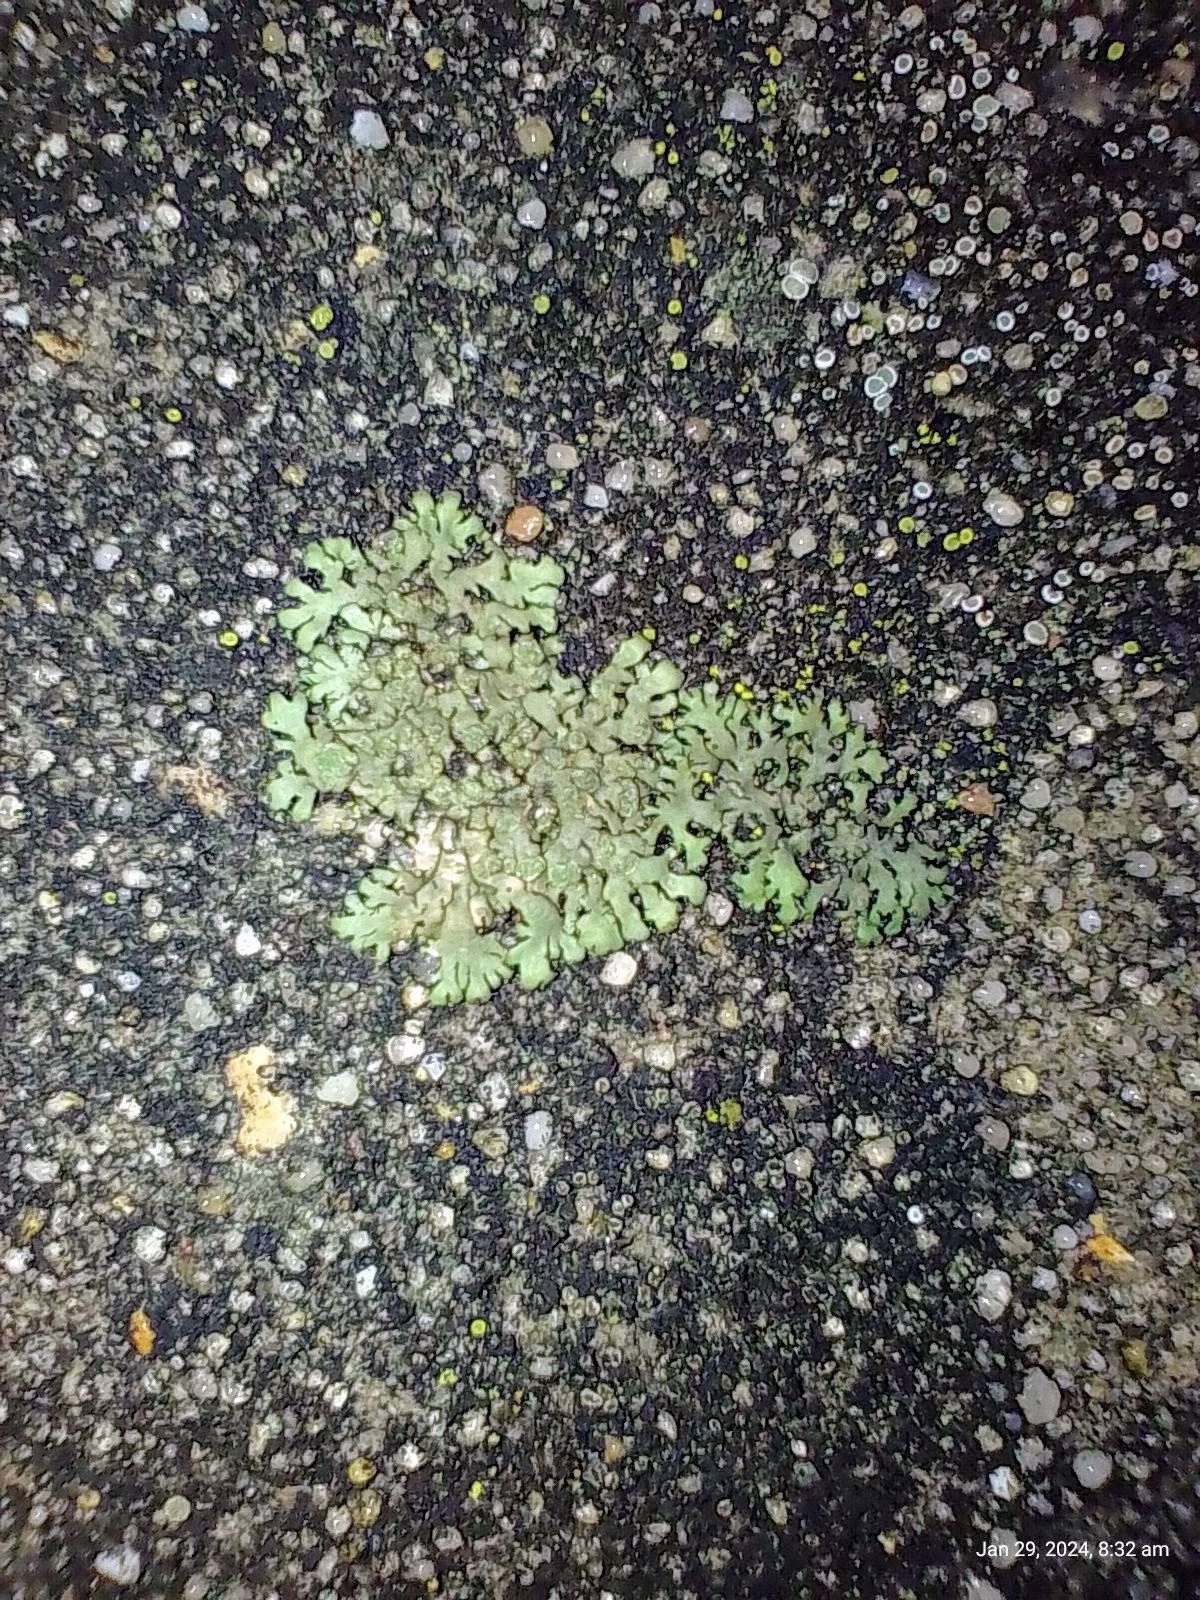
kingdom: Fungi
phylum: Ascomycota
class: Lecanoromycetes
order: Caliciales
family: Physciaceae
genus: Phaeophyscia
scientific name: Phaeophyscia orbicularis
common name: Mealy shadow lichen
